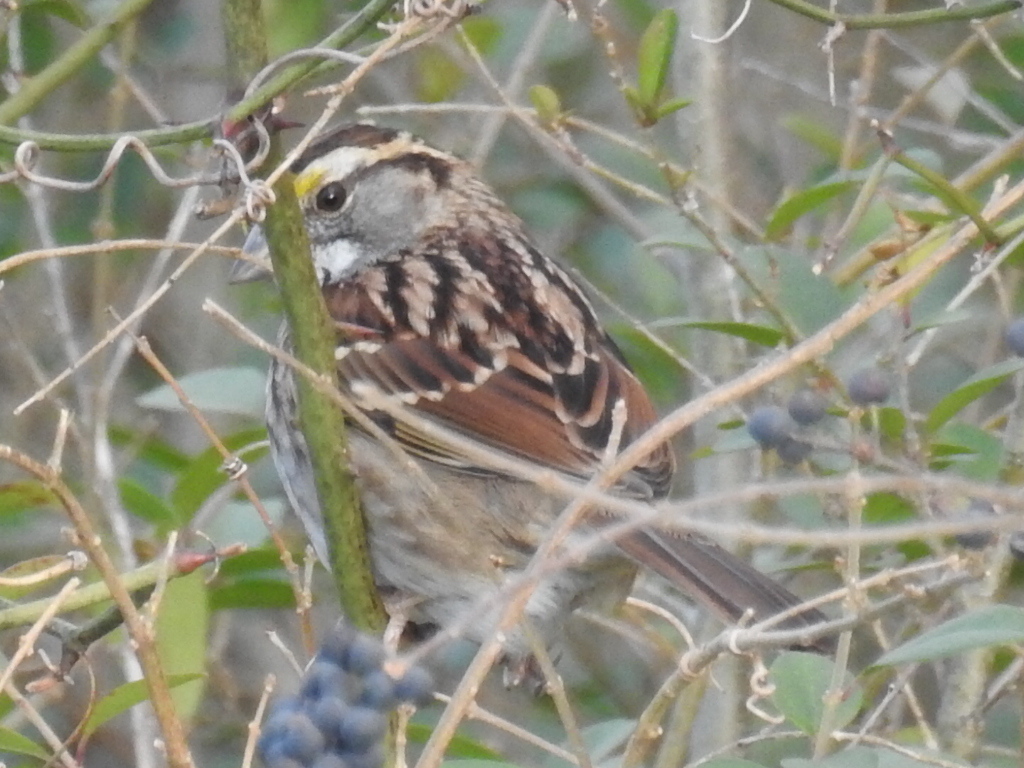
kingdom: Animalia
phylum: Chordata
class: Aves
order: Passeriformes
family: Passerellidae
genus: Zonotrichia
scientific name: Zonotrichia albicollis
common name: White-throated sparrow
